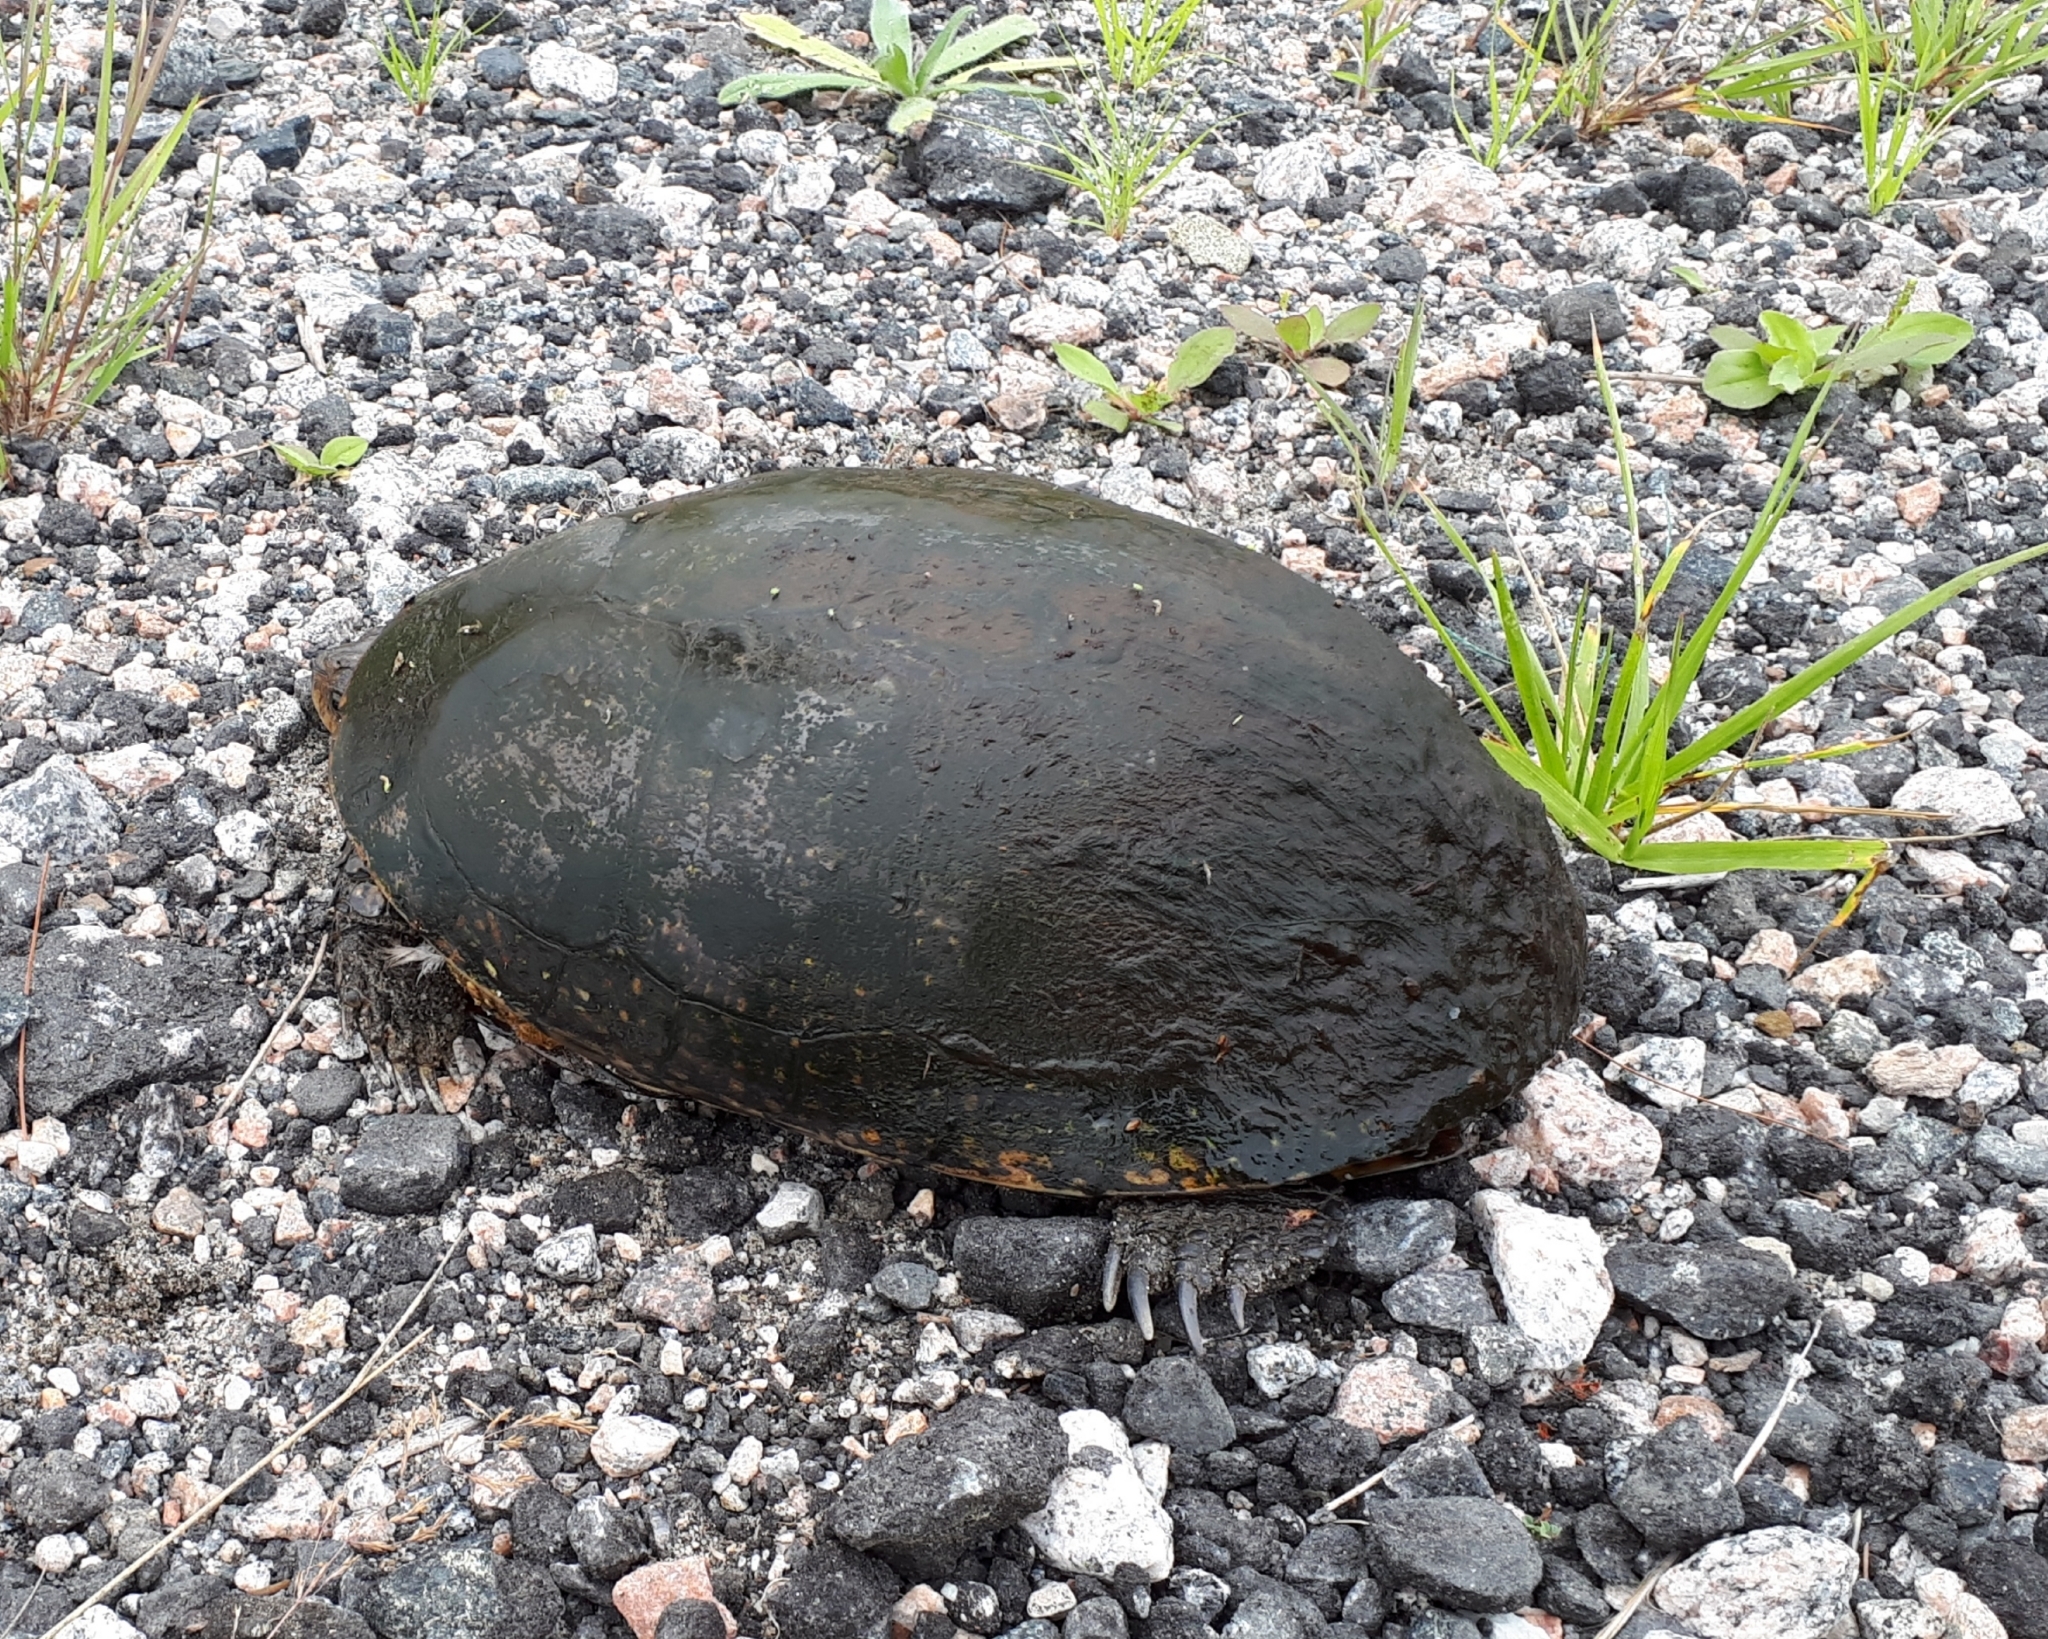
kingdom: Animalia
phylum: Chordata
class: Testudines
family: Emydidae
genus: Emys
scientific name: Emys blandingii
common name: Blanding's turtle
